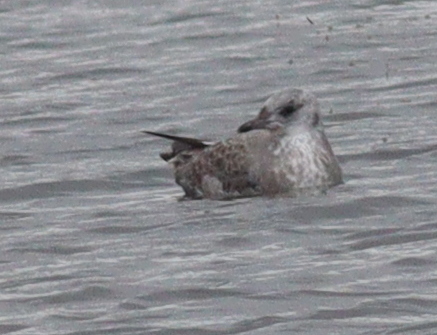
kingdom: Animalia
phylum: Chordata
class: Aves
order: Charadriiformes
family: Laridae
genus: Larus
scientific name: Larus canus
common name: Mew gull
